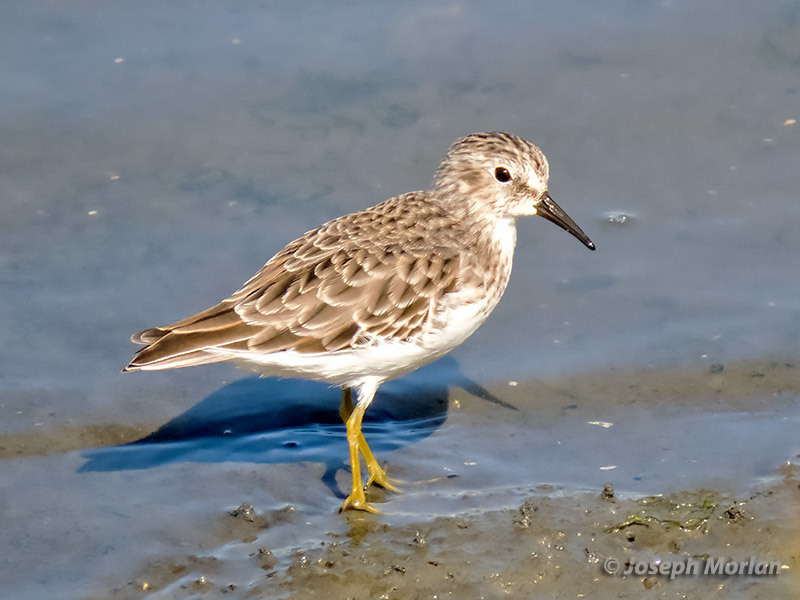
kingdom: Animalia
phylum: Chordata
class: Aves
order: Charadriiformes
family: Scolopacidae
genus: Calidris
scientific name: Calidris minutilla
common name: Least sandpiper
